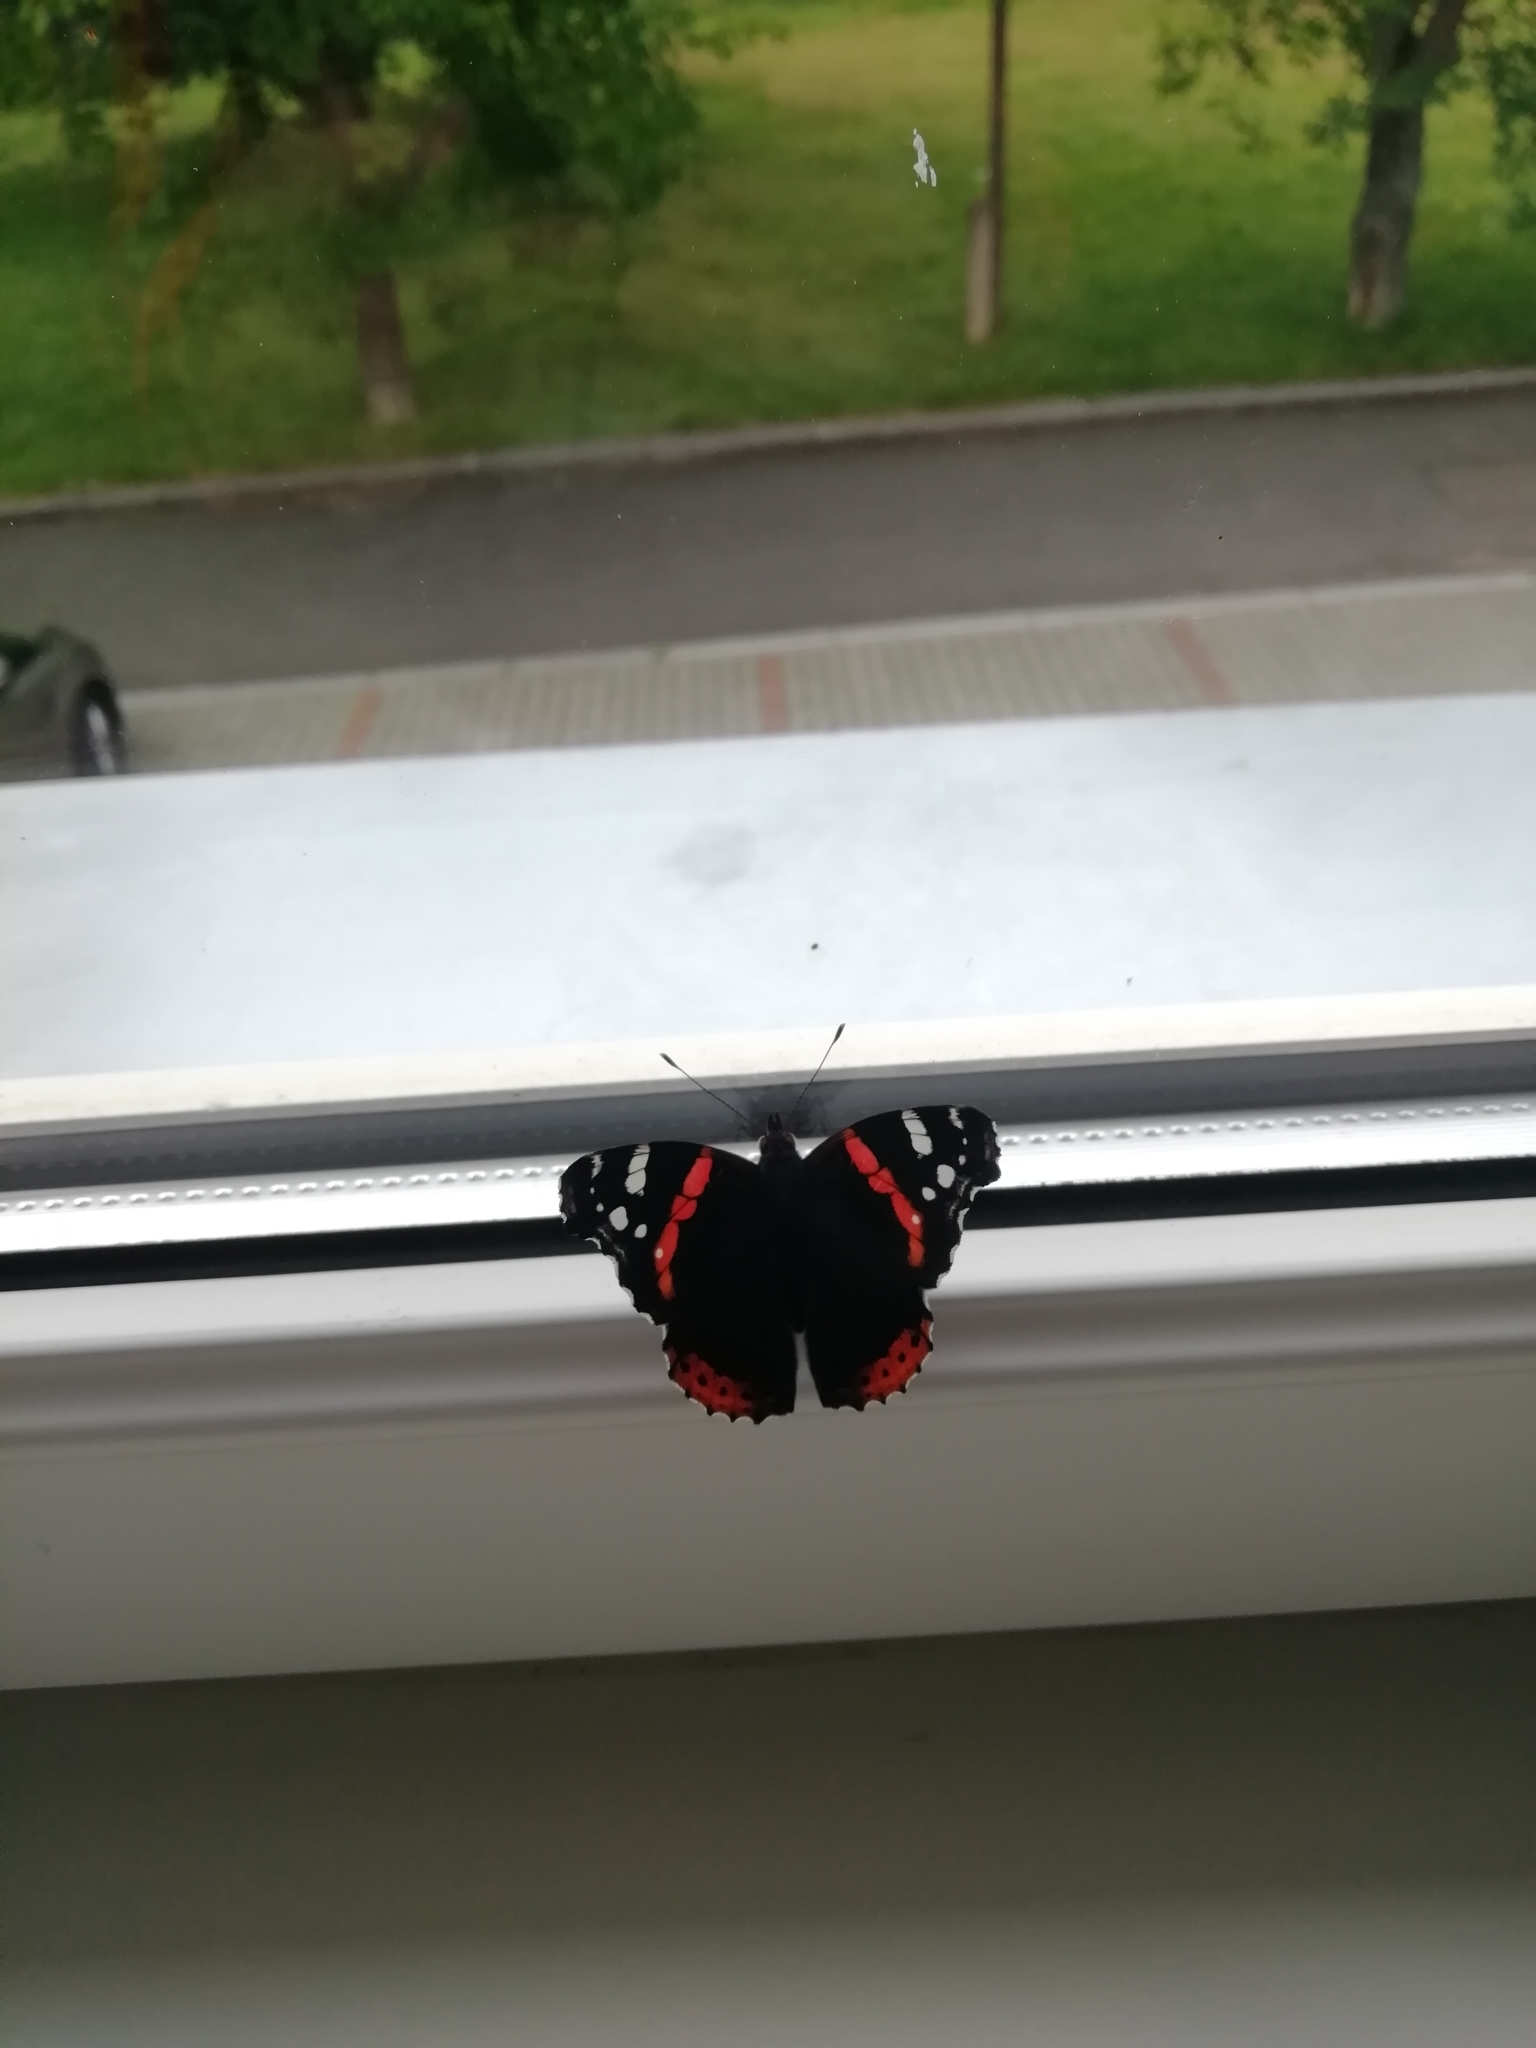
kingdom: Animalia
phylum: Arthropoda
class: Insecta
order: Lepidoptera
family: Nymphalidae
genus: Vanessa
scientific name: Vanessa atalanta
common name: Red admiral
